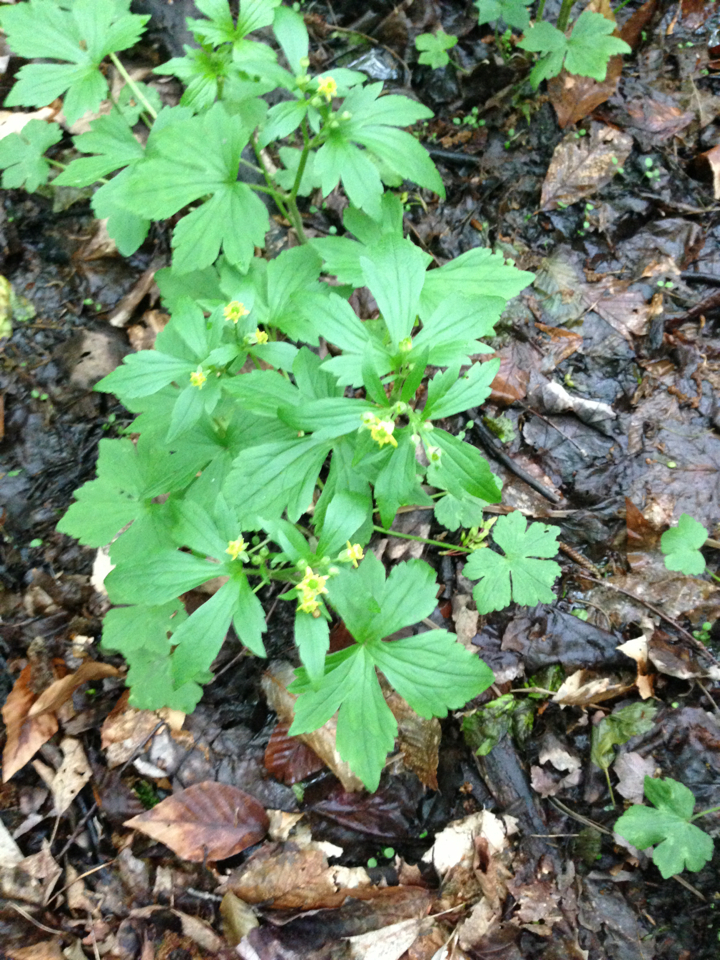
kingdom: Plantae
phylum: Tracheophyta
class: Magnoliopsida
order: Ranunculales
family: Ranunculaceae
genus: Ranunculus
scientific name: Ranunculus recurvatus
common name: Blisterwort
